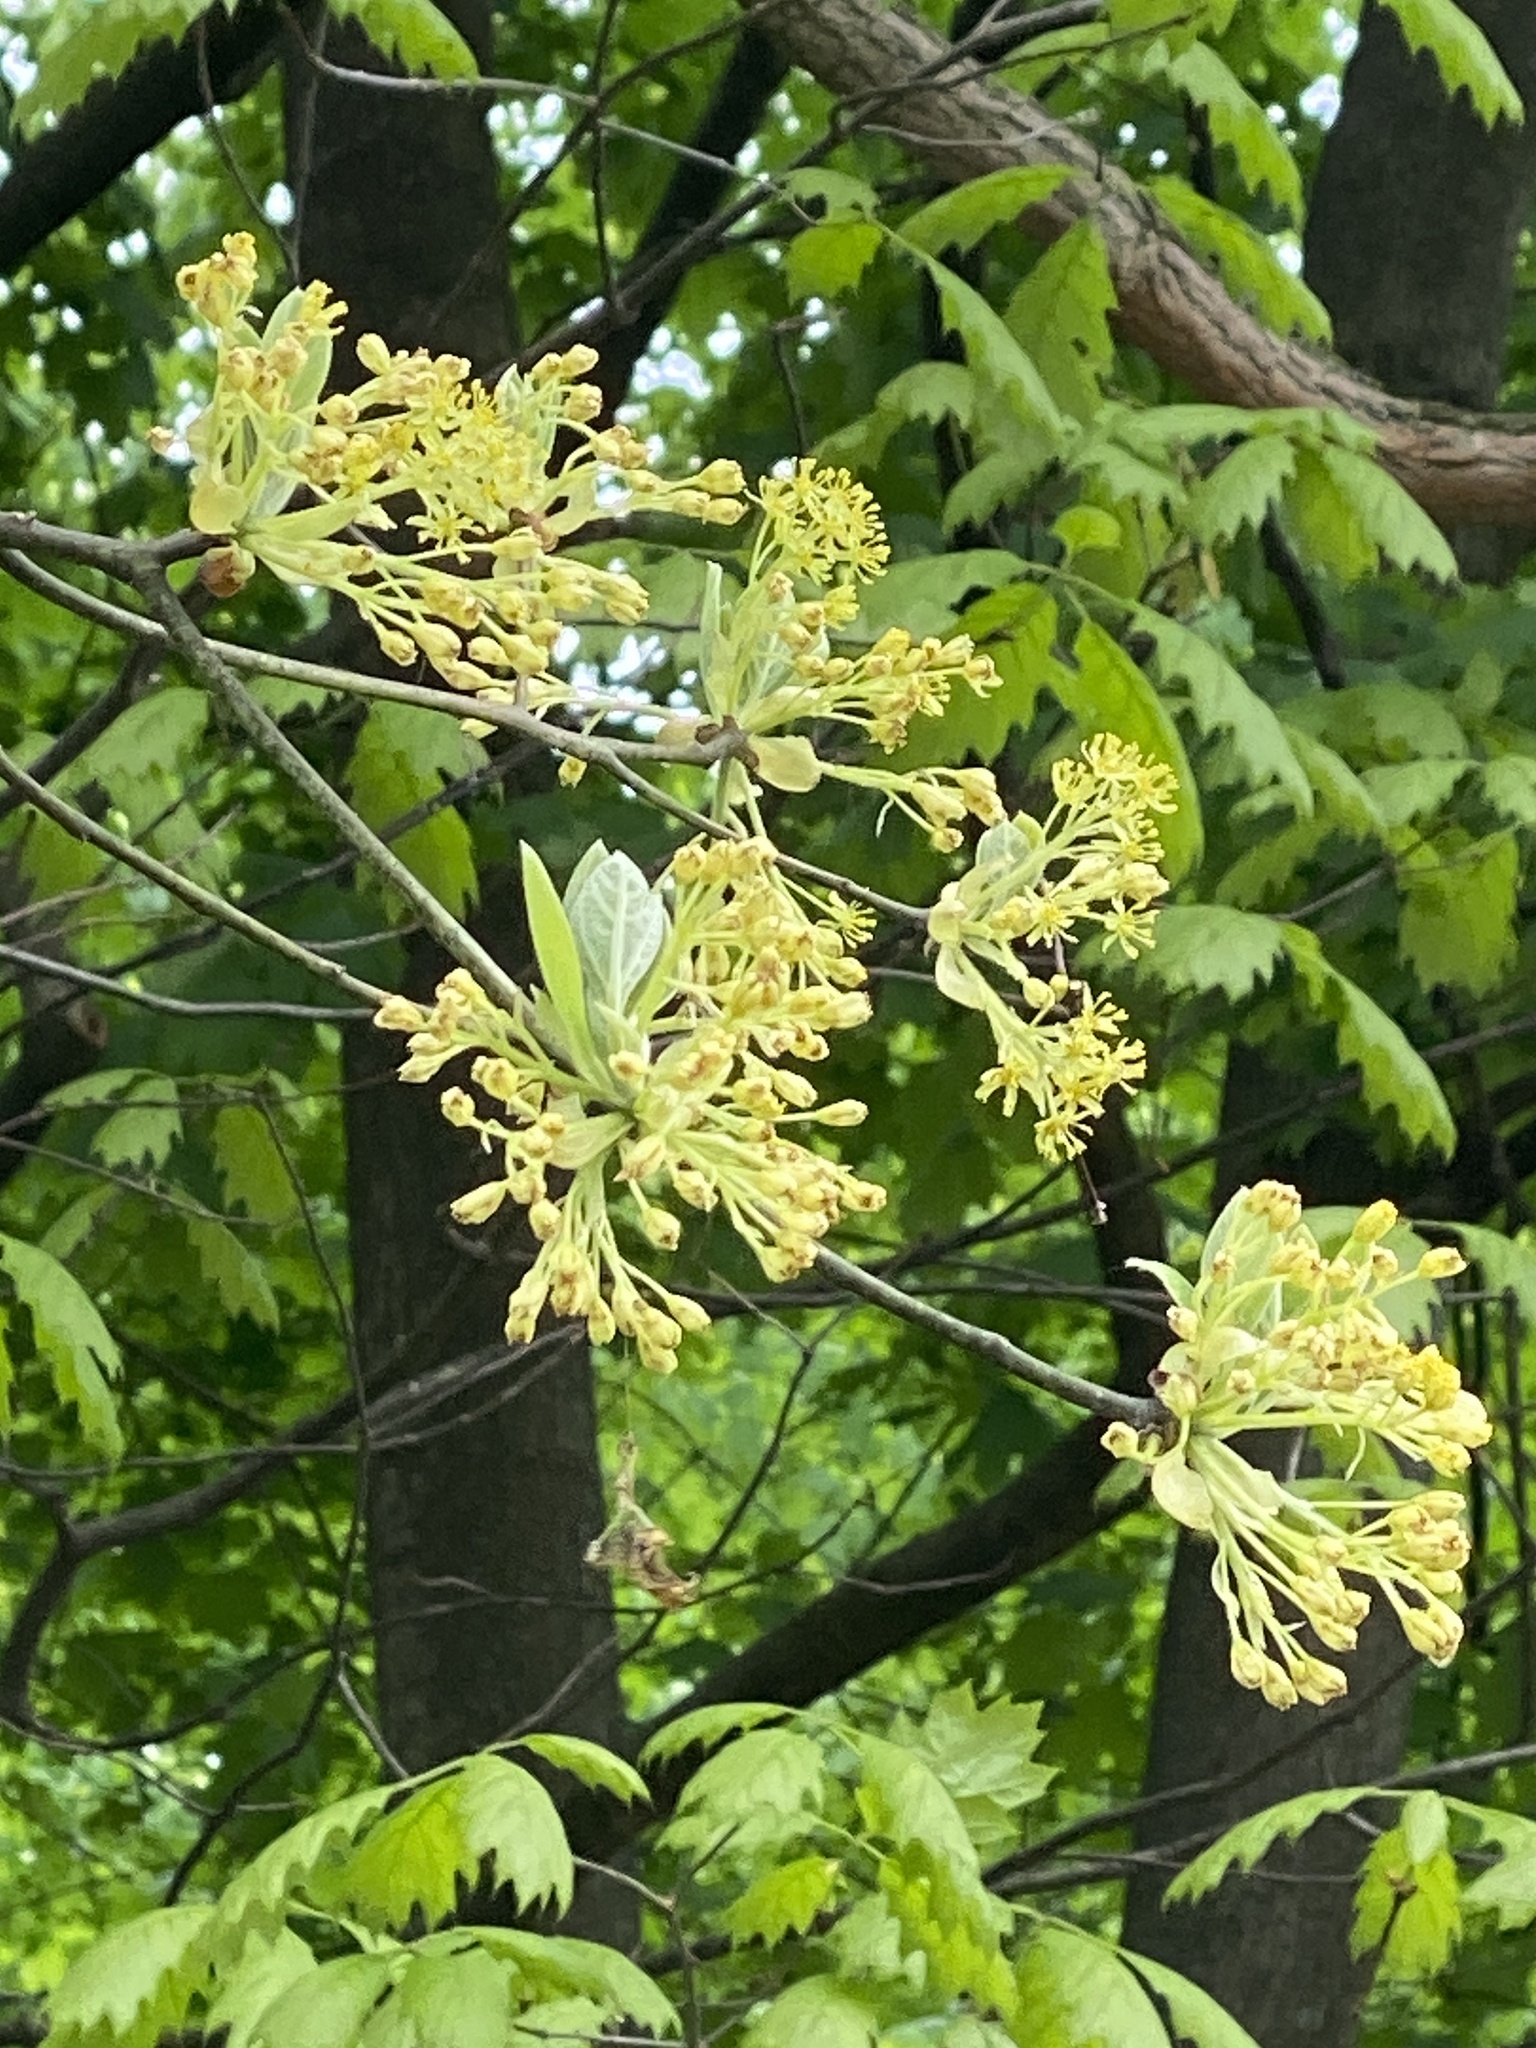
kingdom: Plantae
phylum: Tracheophyta
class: Magnoliopsida
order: Laurales
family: Lauraceae
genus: Sassafras
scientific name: Sassafras albidum
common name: Sassafras
